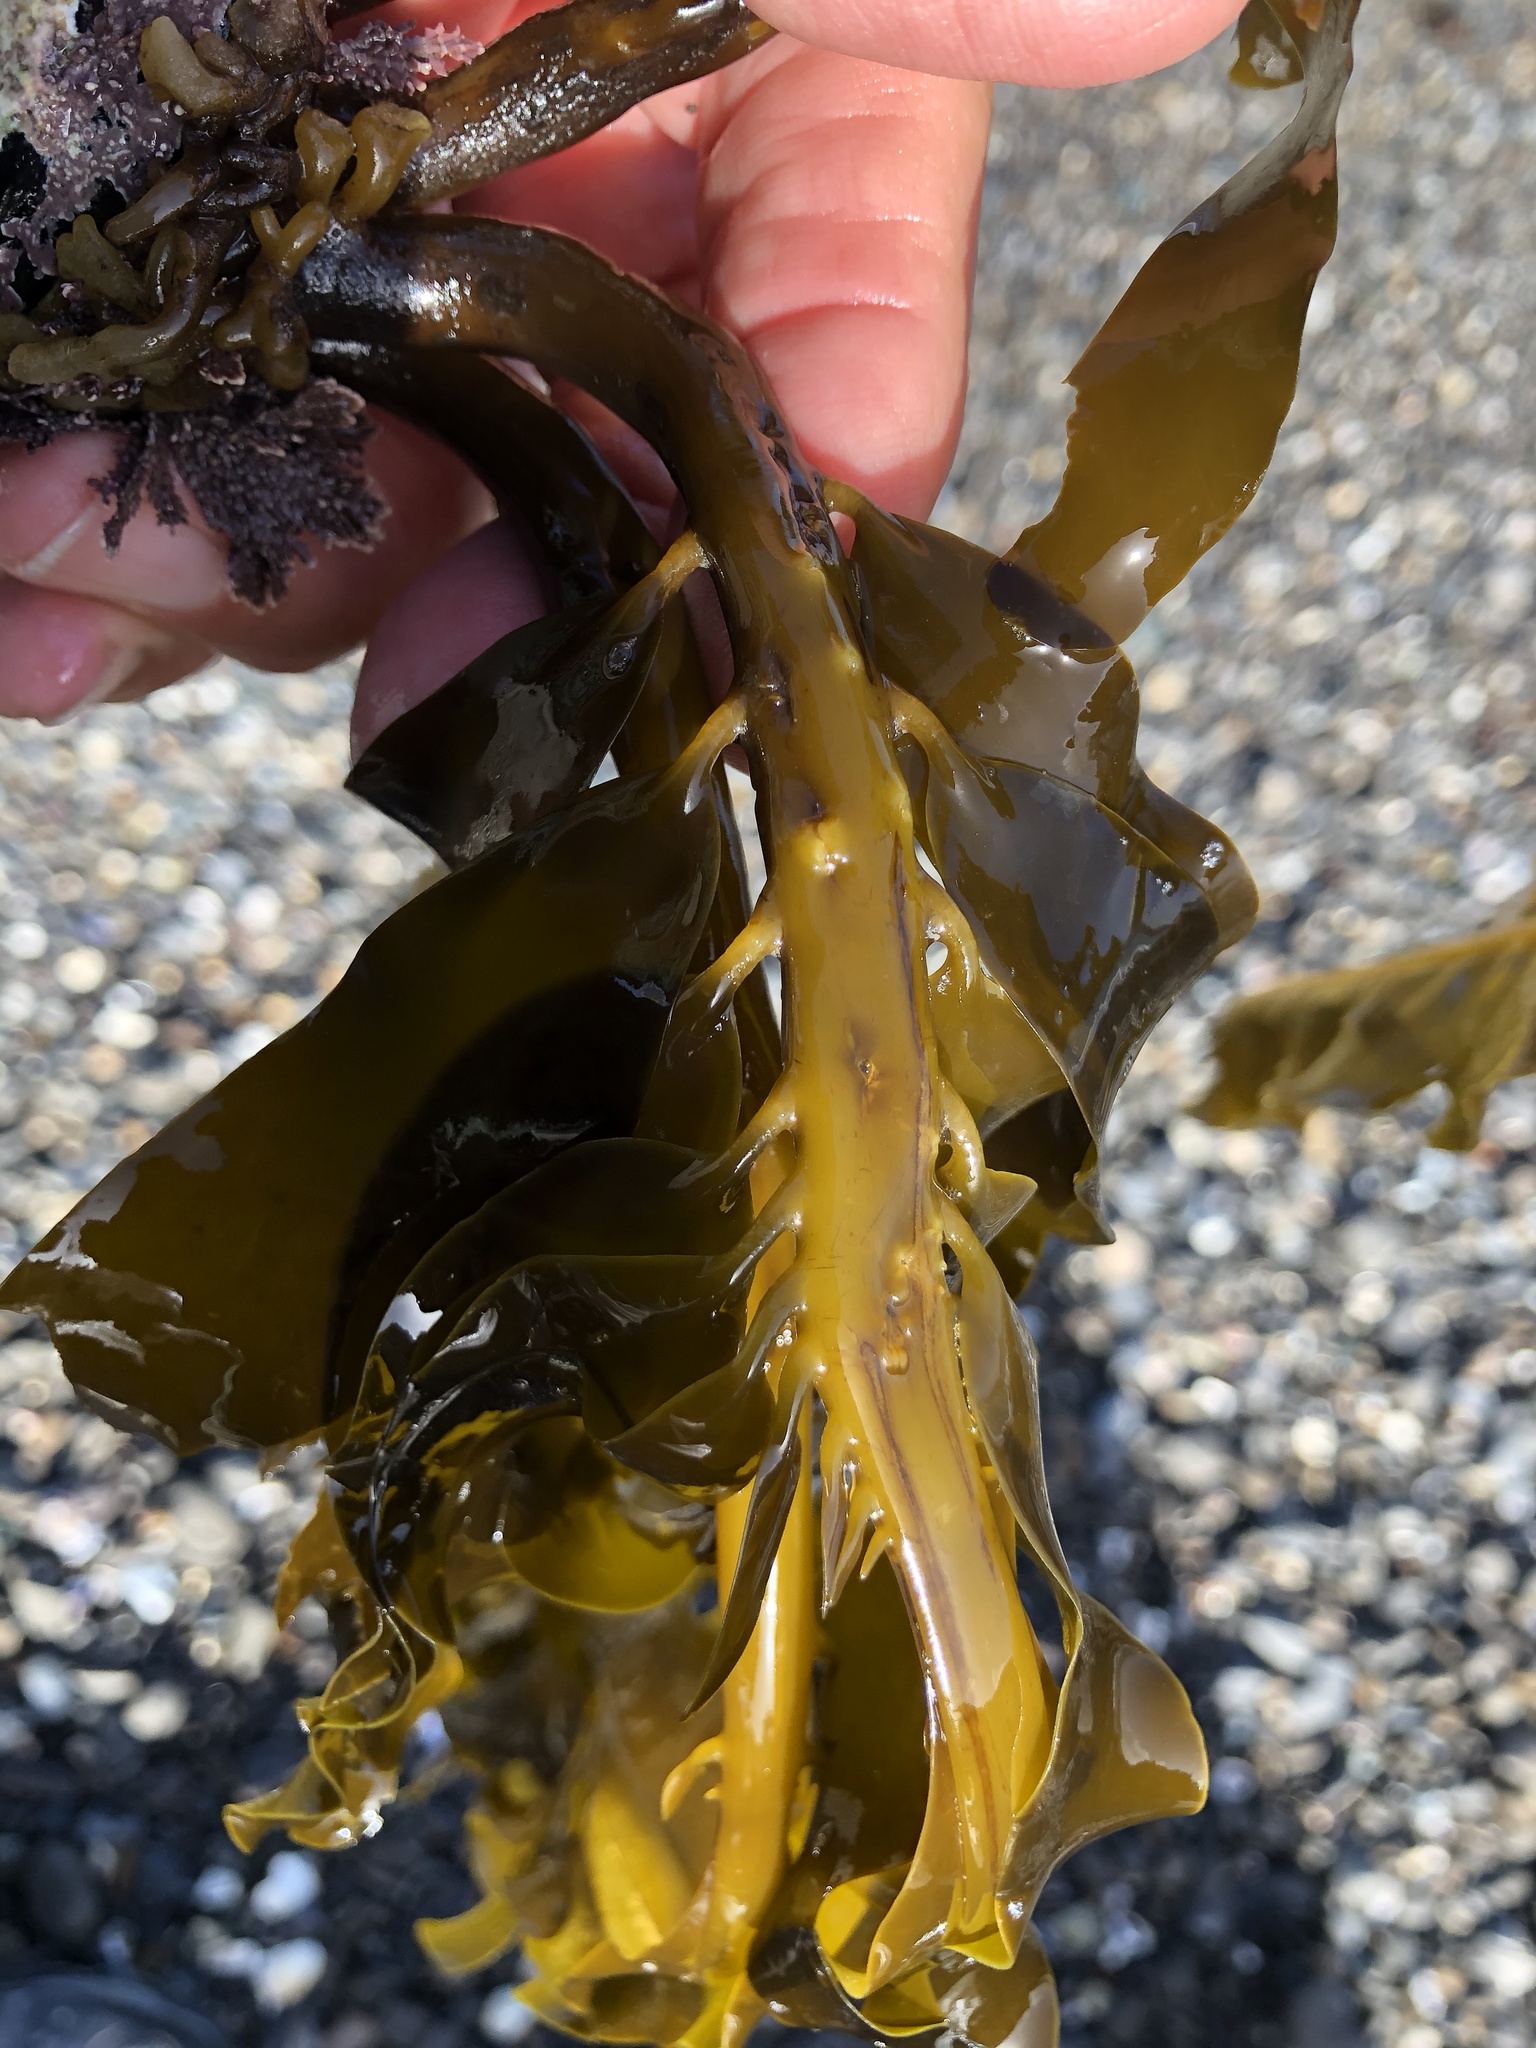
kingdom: Chromista
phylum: Ochrophyta
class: Phaeophyceae
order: Laminariales
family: Alariaceae
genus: Alaria
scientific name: Alaria marginata
